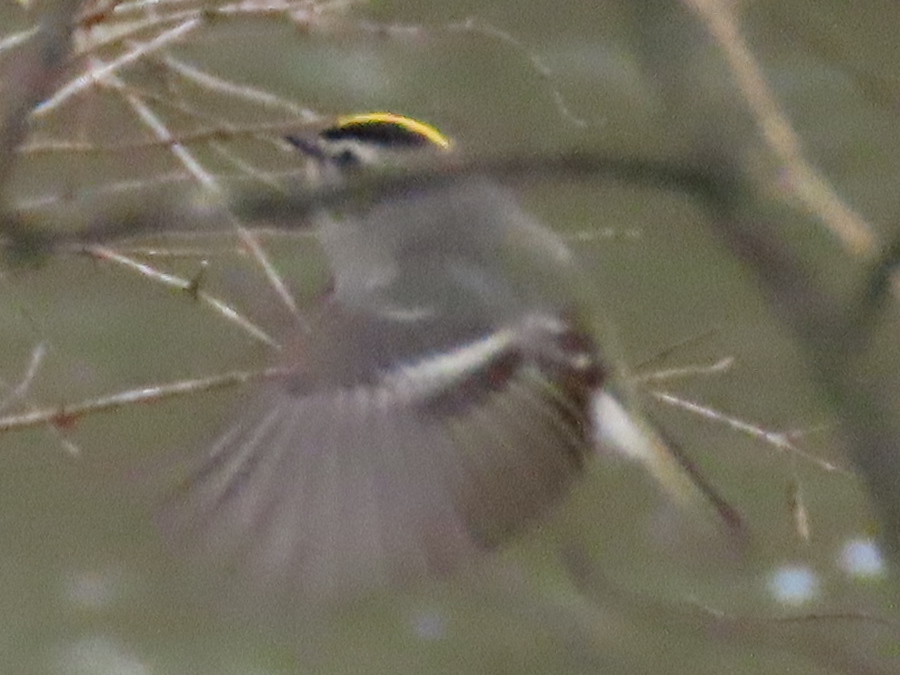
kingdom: Animalia
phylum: Chordata
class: Aves
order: Passeriformes
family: Regulidae
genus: Regulus
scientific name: Regulus satrapa
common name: Golden-crowned kinglet
